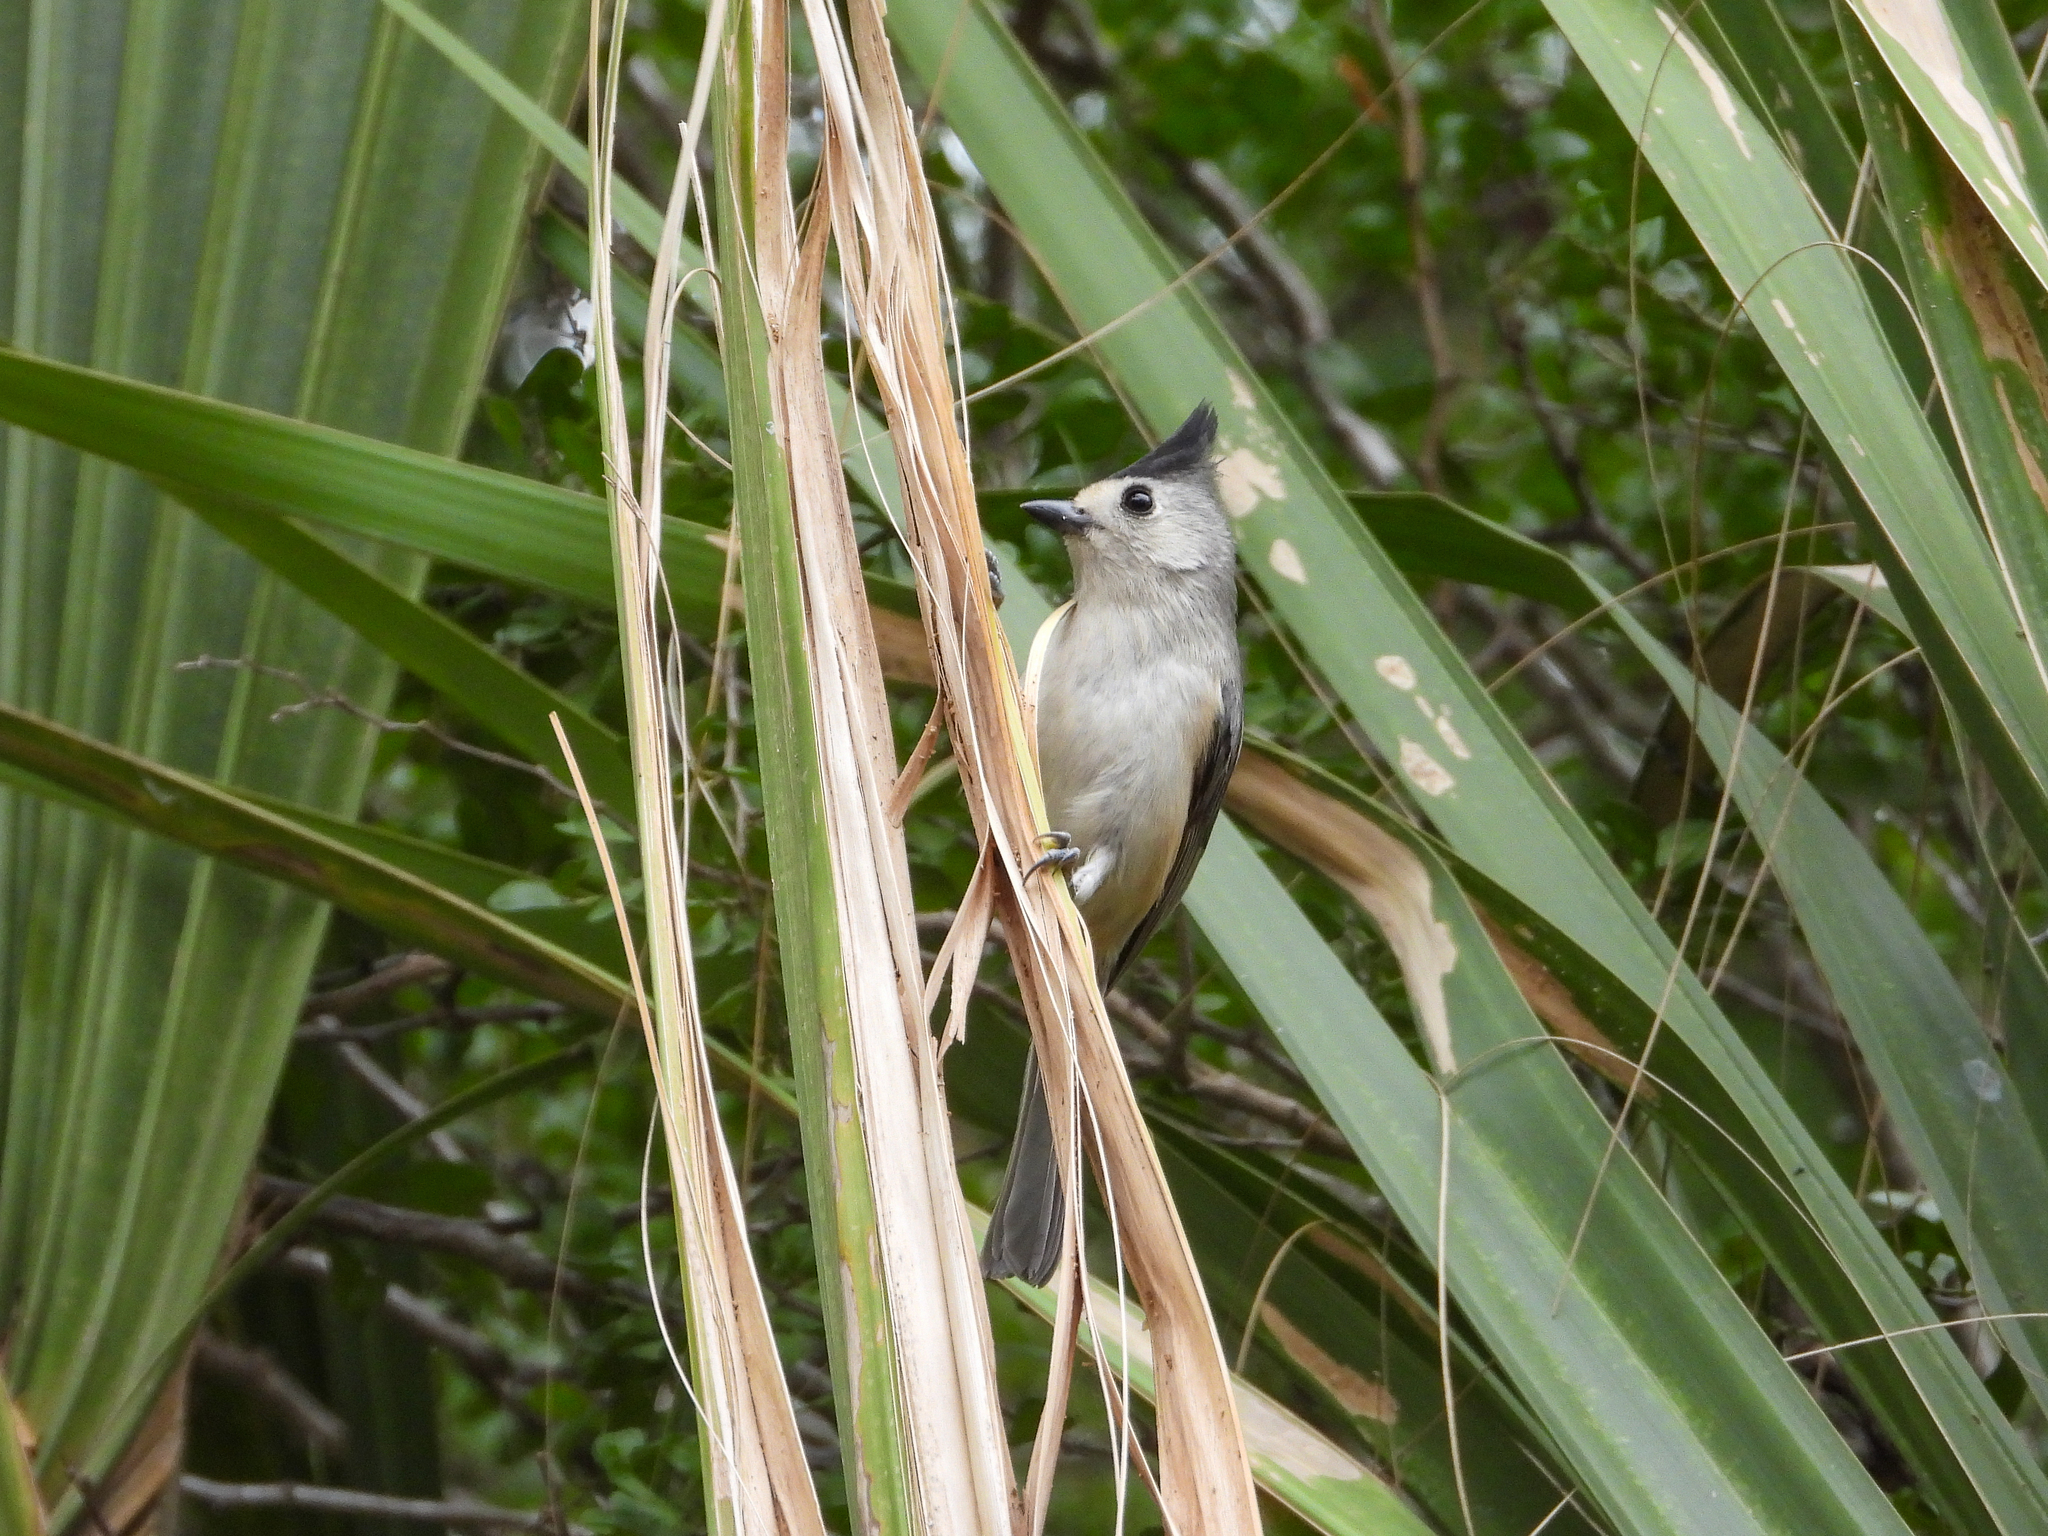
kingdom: Animalia
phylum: Chordata
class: Aves
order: Passeriformes
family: Paridae
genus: Baeolophus
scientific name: Baeolophus atricristatus
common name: Black-crested titmouse
